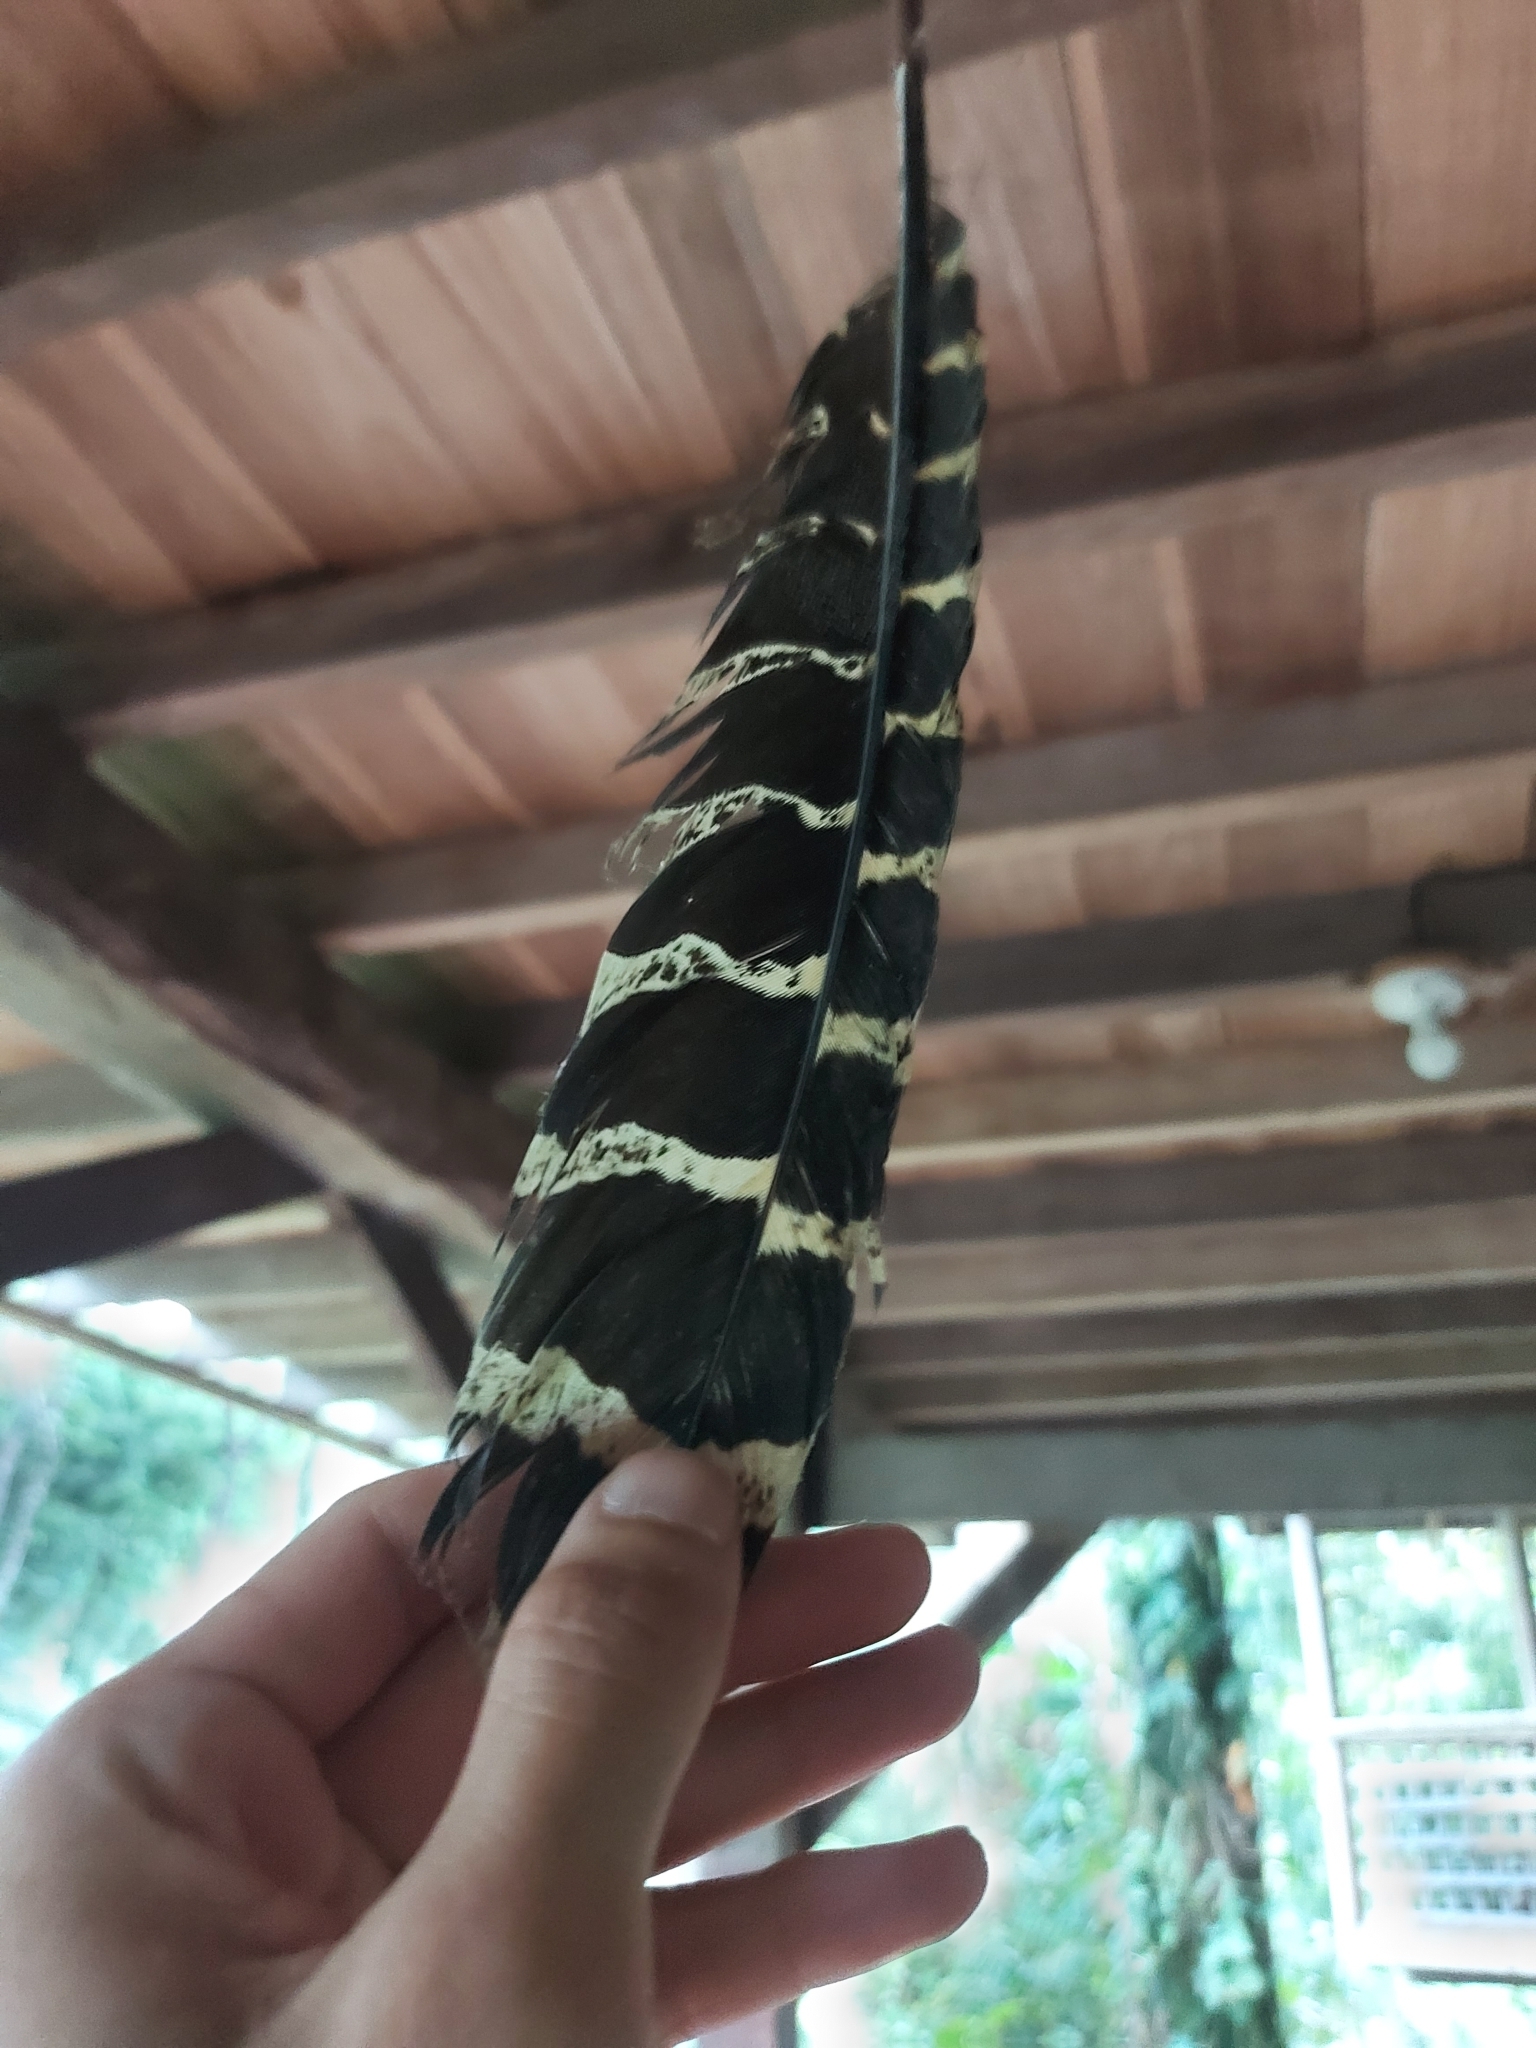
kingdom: Animalia
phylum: Chordata
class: Aves
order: Galliformes
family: Cracidae
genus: Crax
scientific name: Crax rubra
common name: Great curassow
